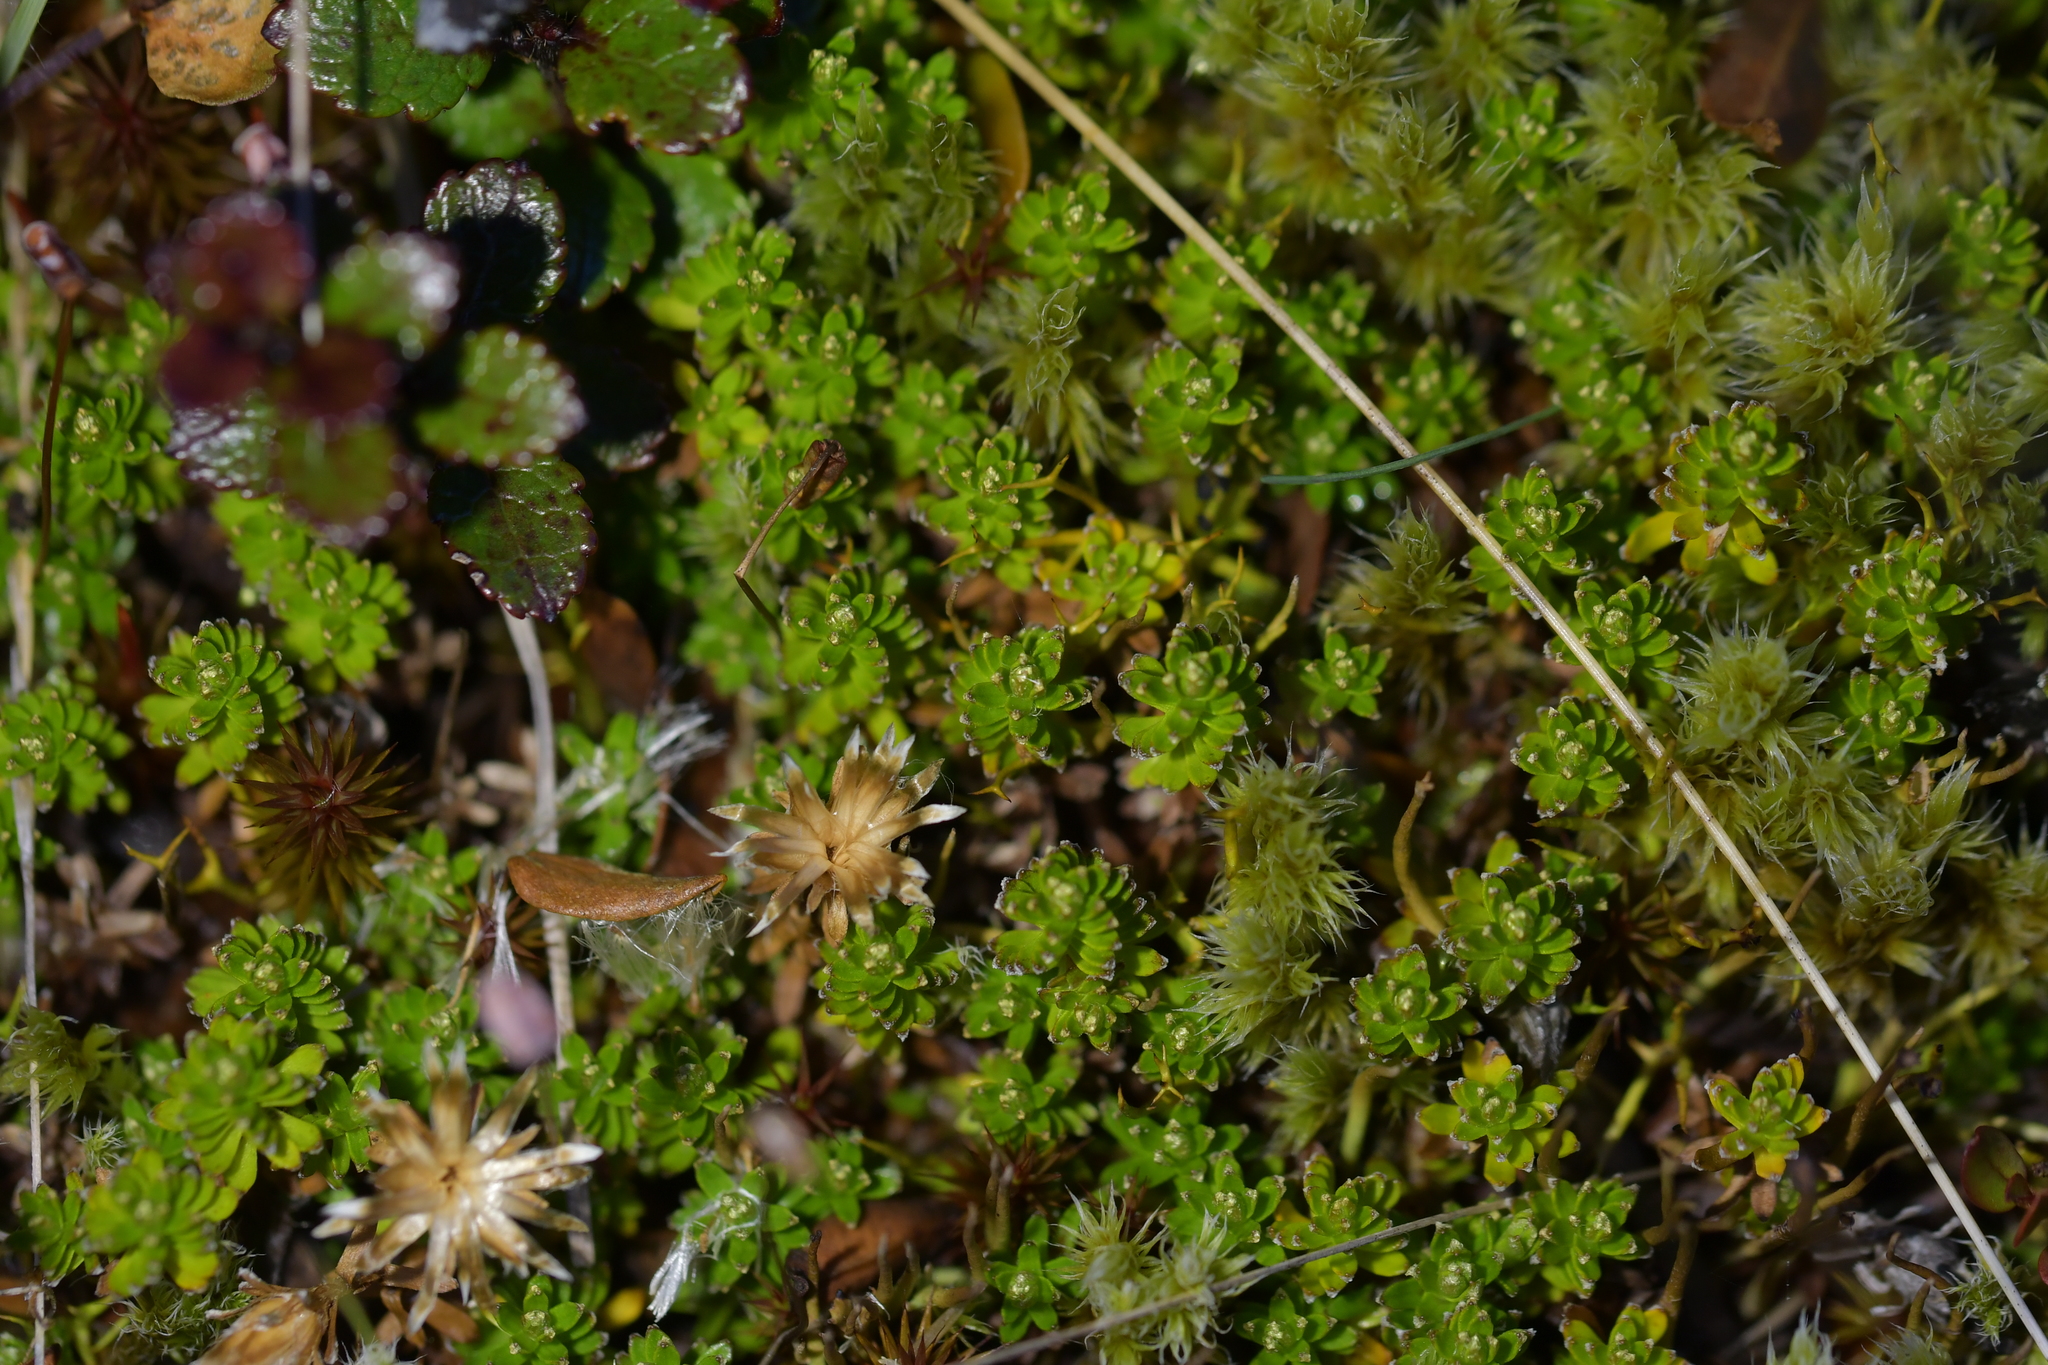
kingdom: Plantae
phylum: Tracheophyta
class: Magnoliopsida
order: Asterales
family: Asteraceae
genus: Raoulia
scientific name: Raoulia glabra
